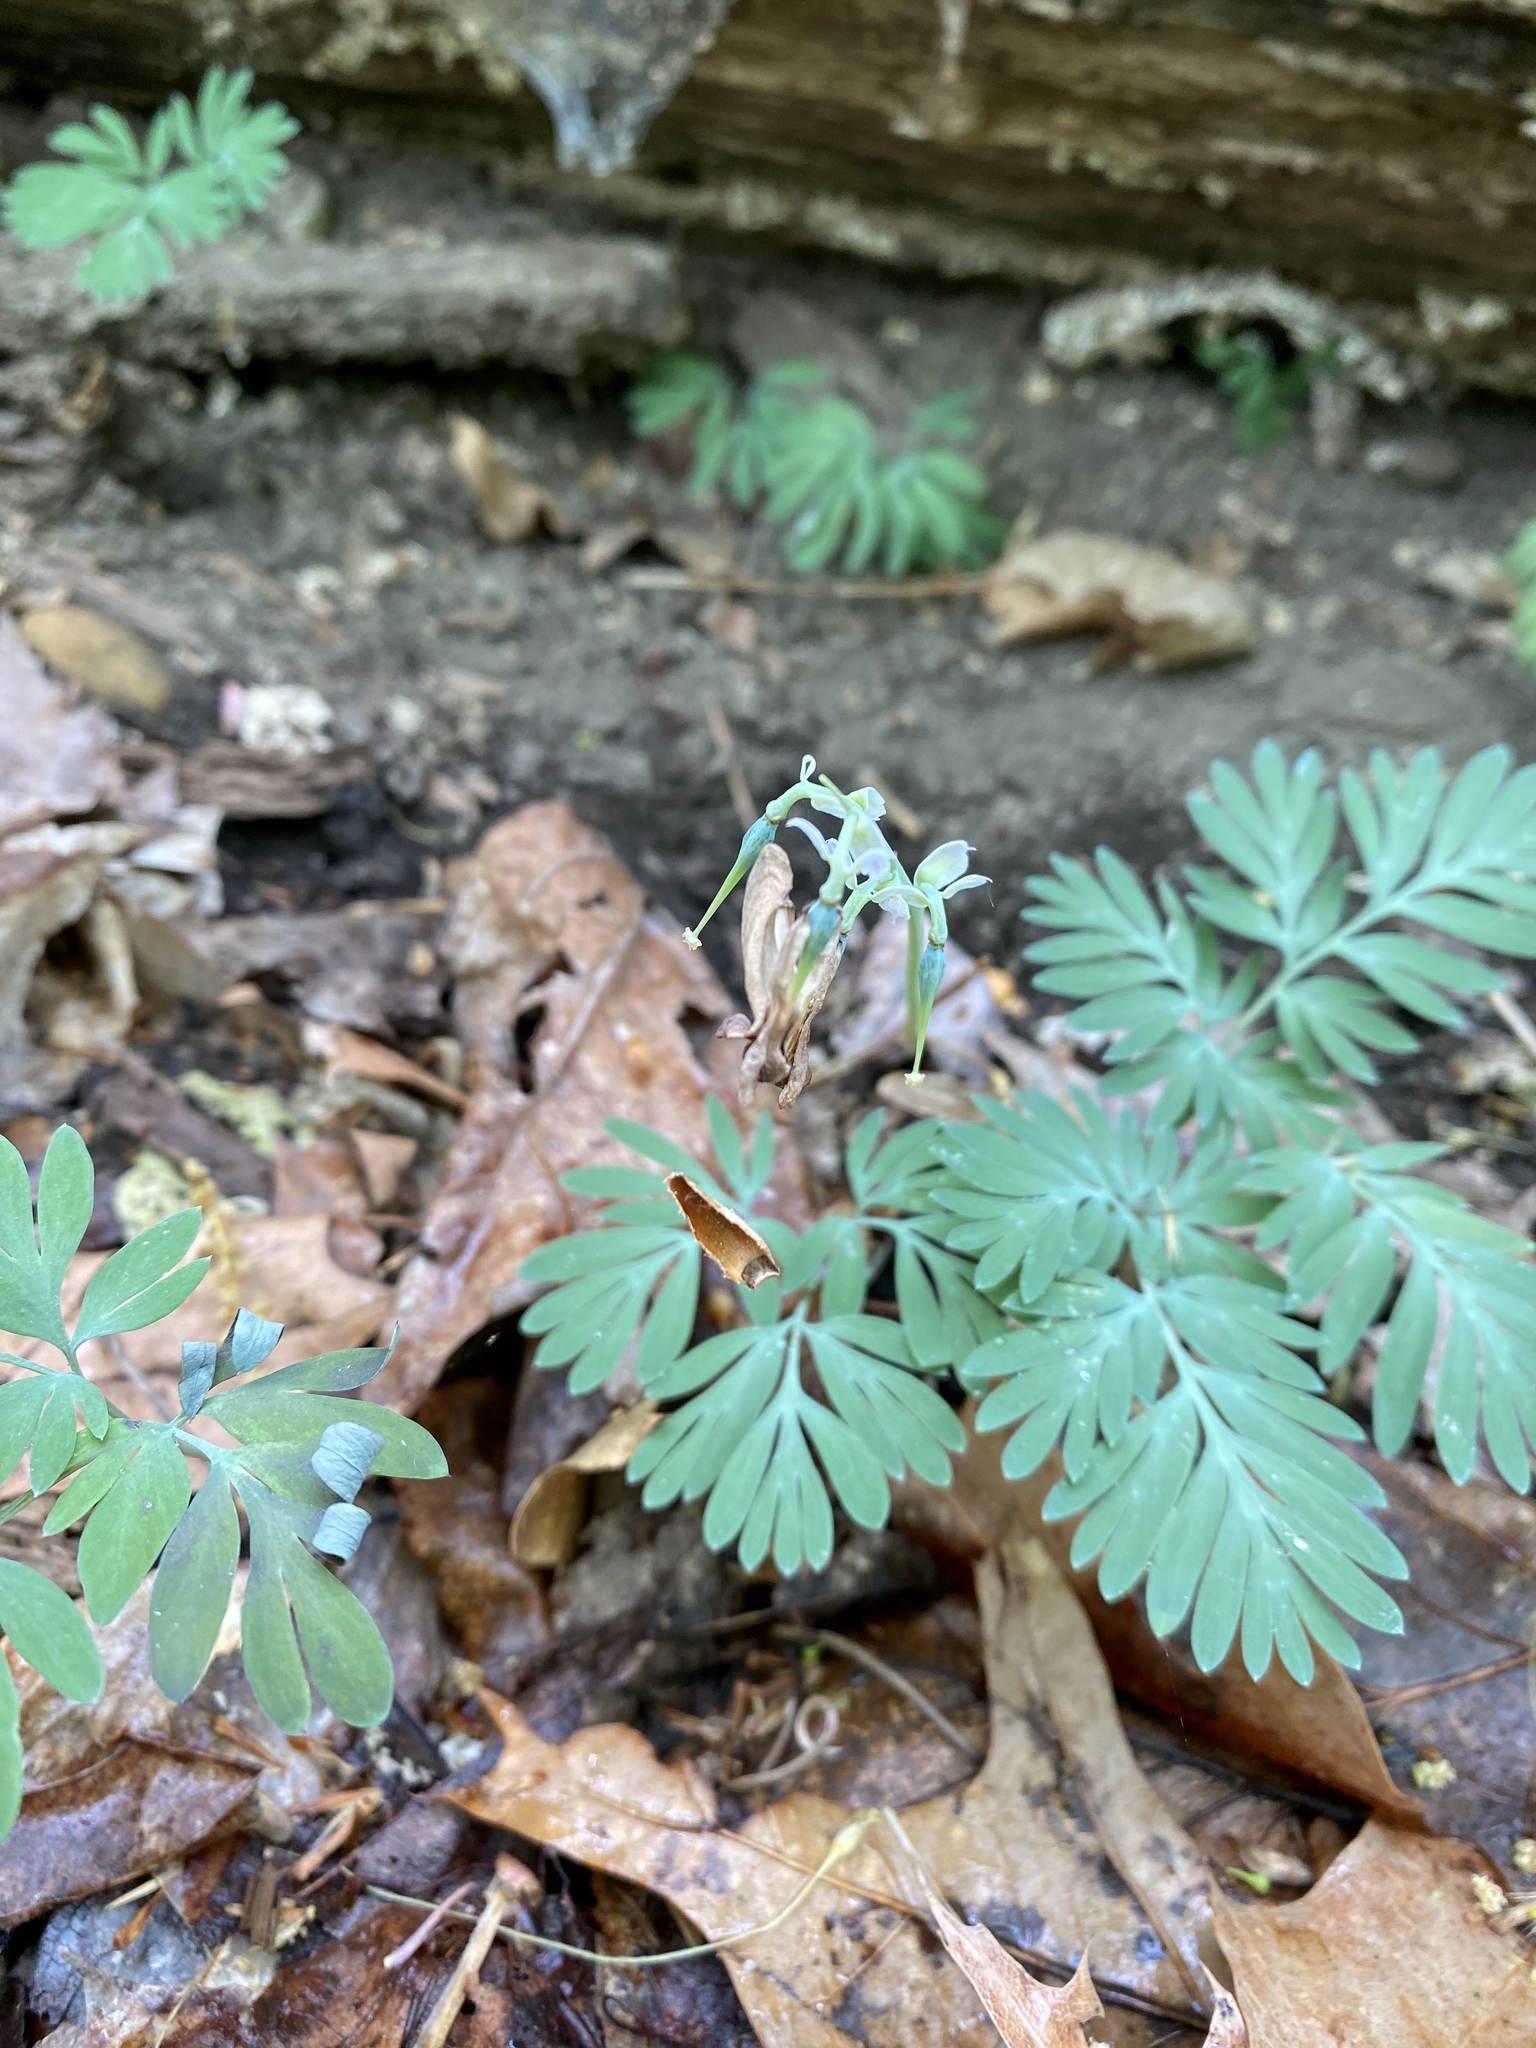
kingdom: Plantae
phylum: Tracheophyta
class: Magnoliopsida
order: Ranunculales
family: Papaveraceae
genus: Dicentra
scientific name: Dicentra canadensis
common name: Squirrel-corn
